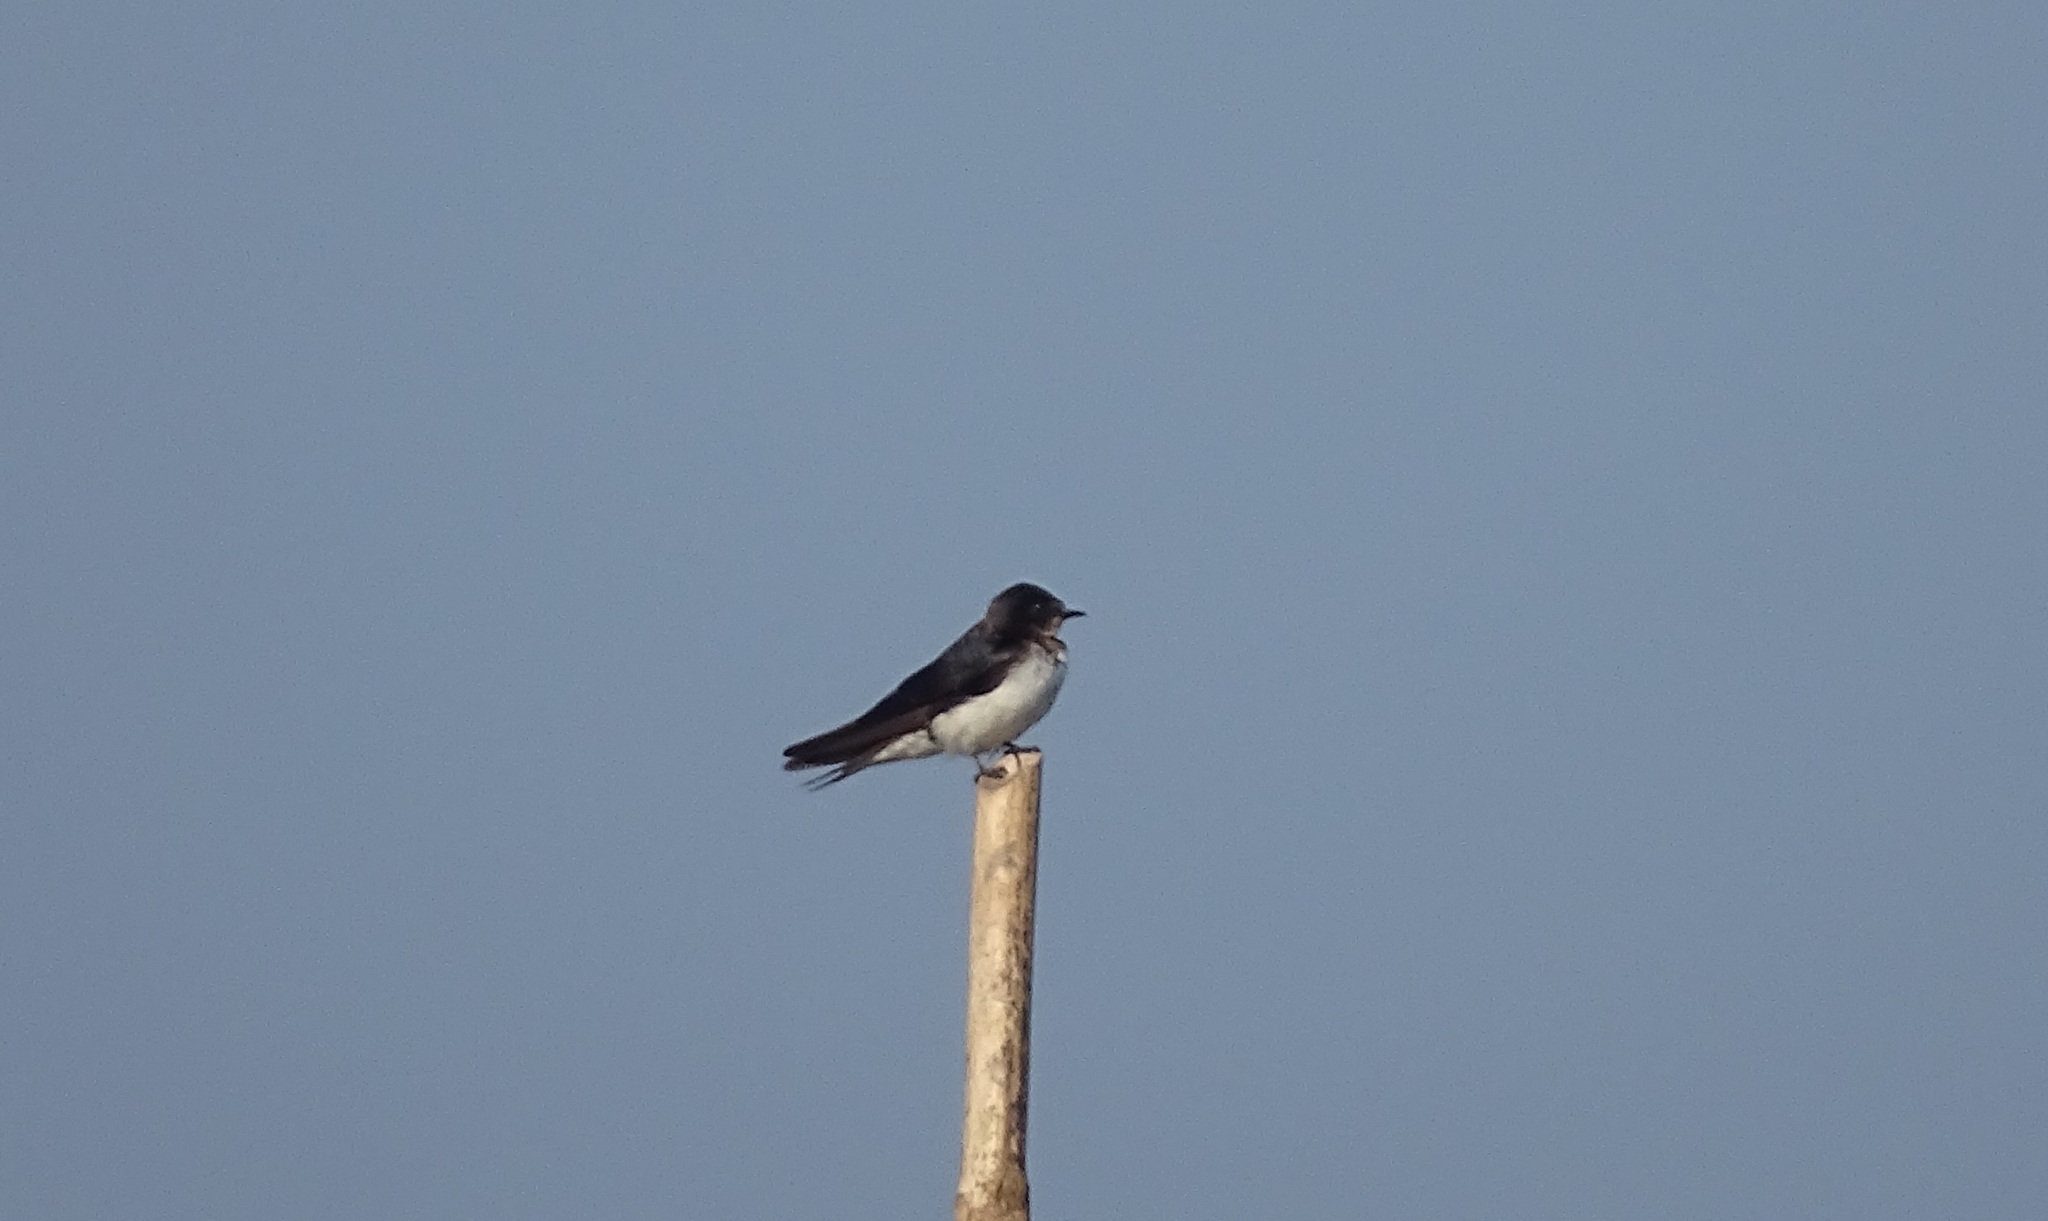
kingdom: Animalia
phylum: Chordata
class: Aves
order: Passeriformes
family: Hirundinidae
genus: Hirundo
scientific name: Hirundo rustica
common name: Barn swallow
